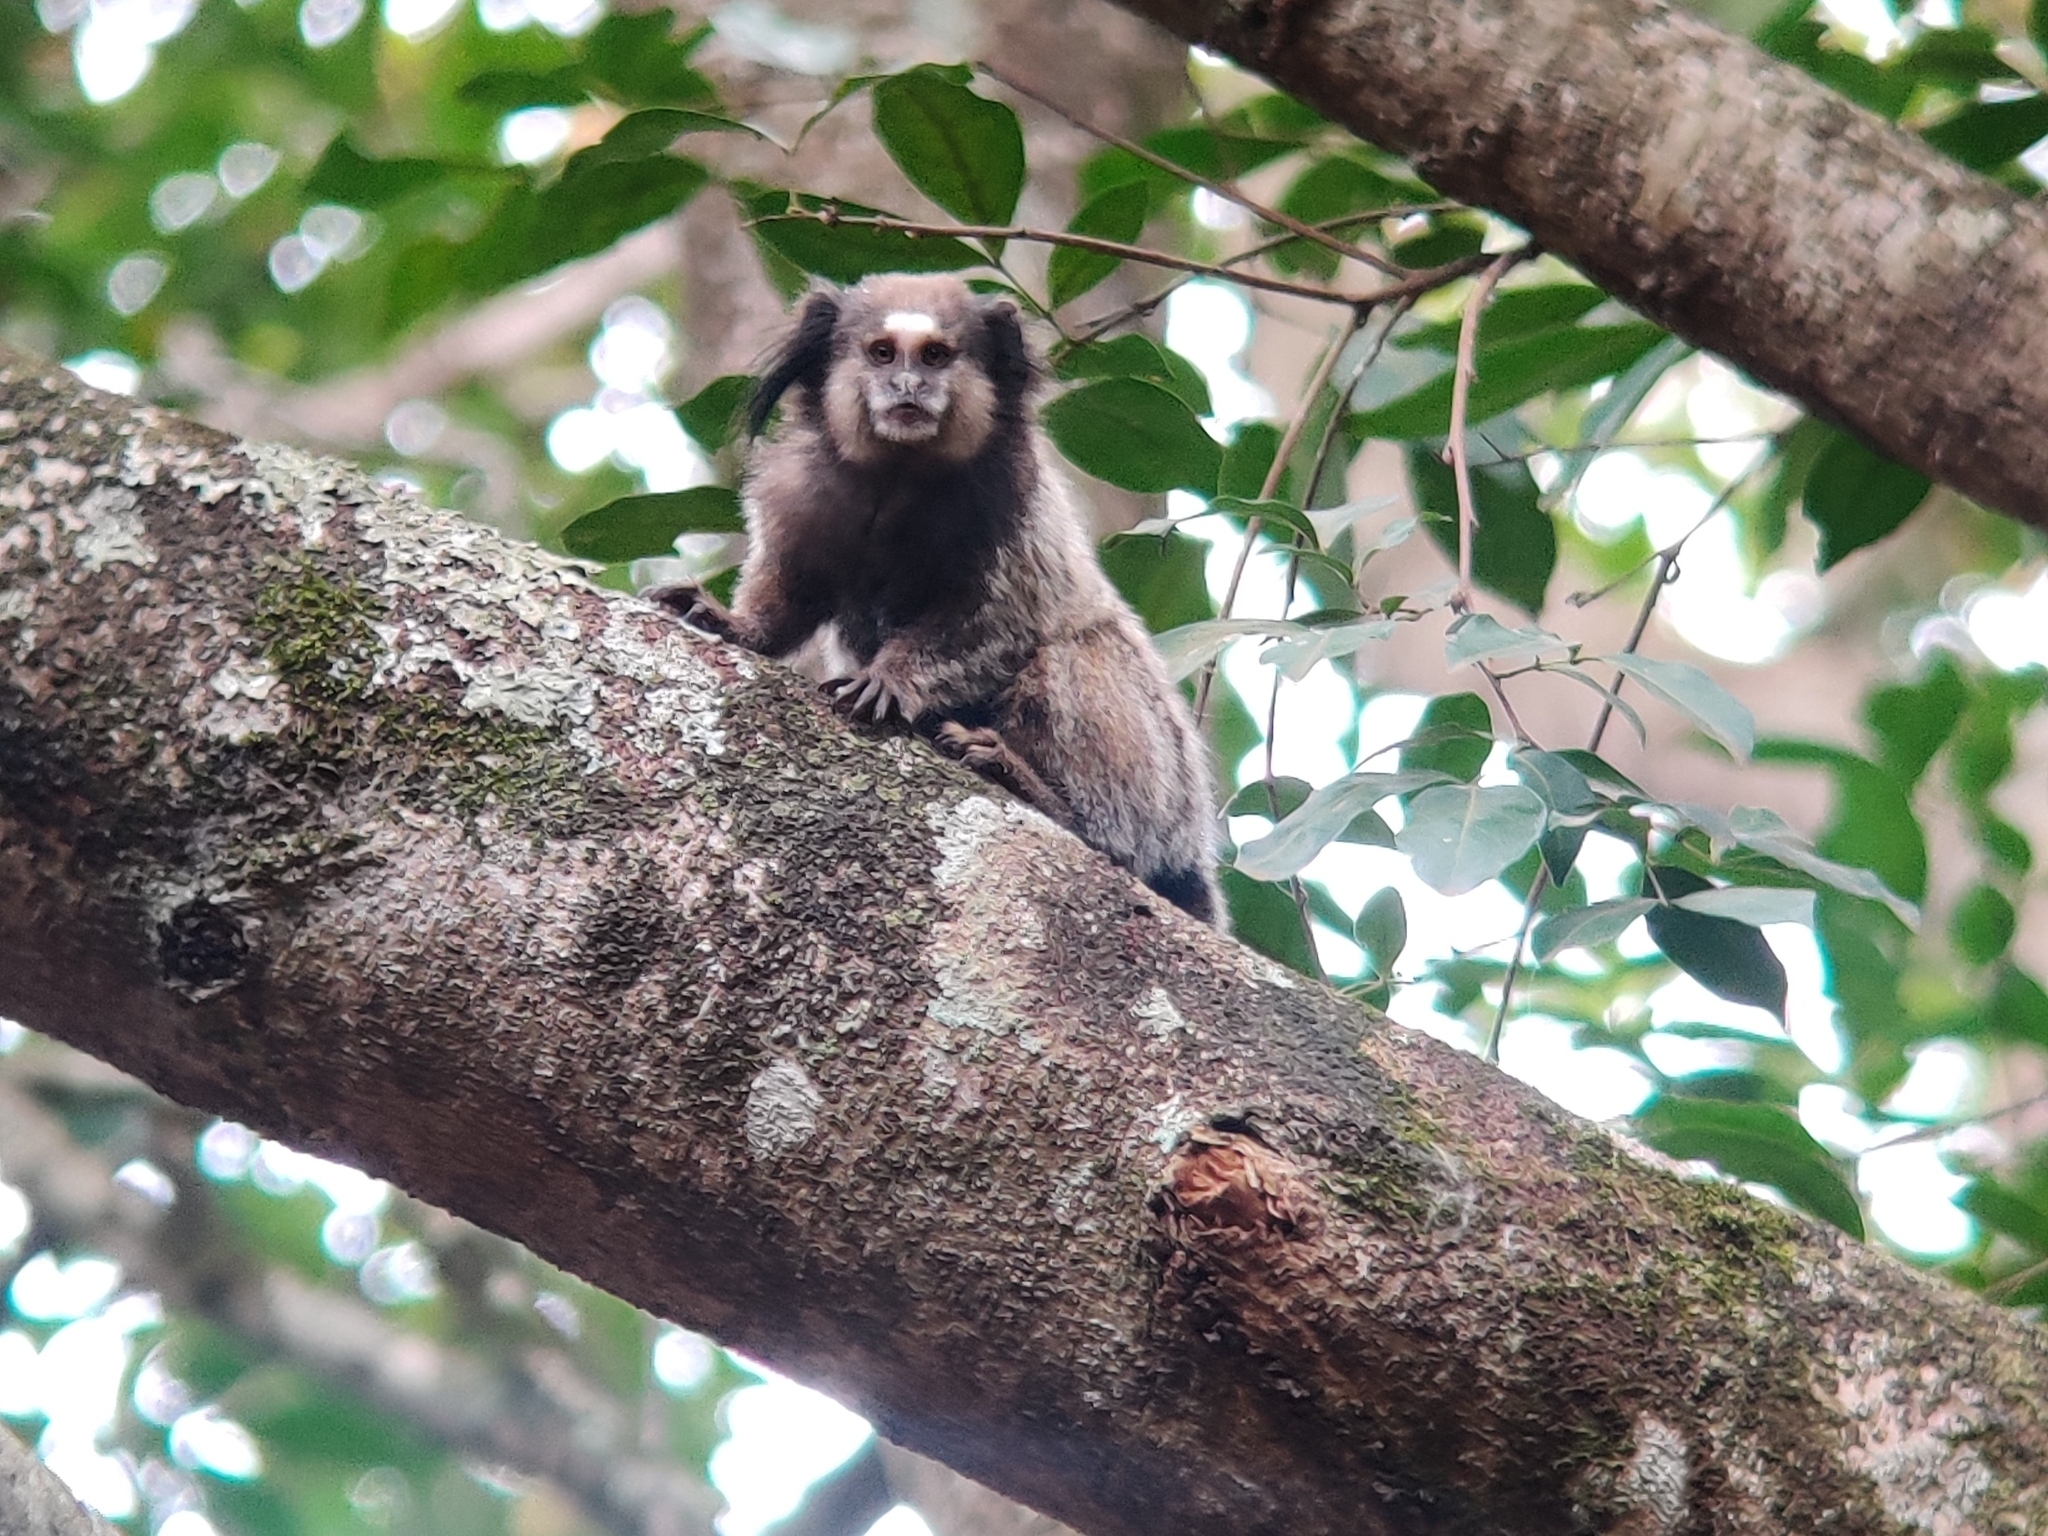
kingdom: Animalia
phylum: Chordata
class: Mammalia
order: Primates
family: Callitrichidae
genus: Callithrix
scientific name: Callithrix penicillata
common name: Black-tufted marmoset
